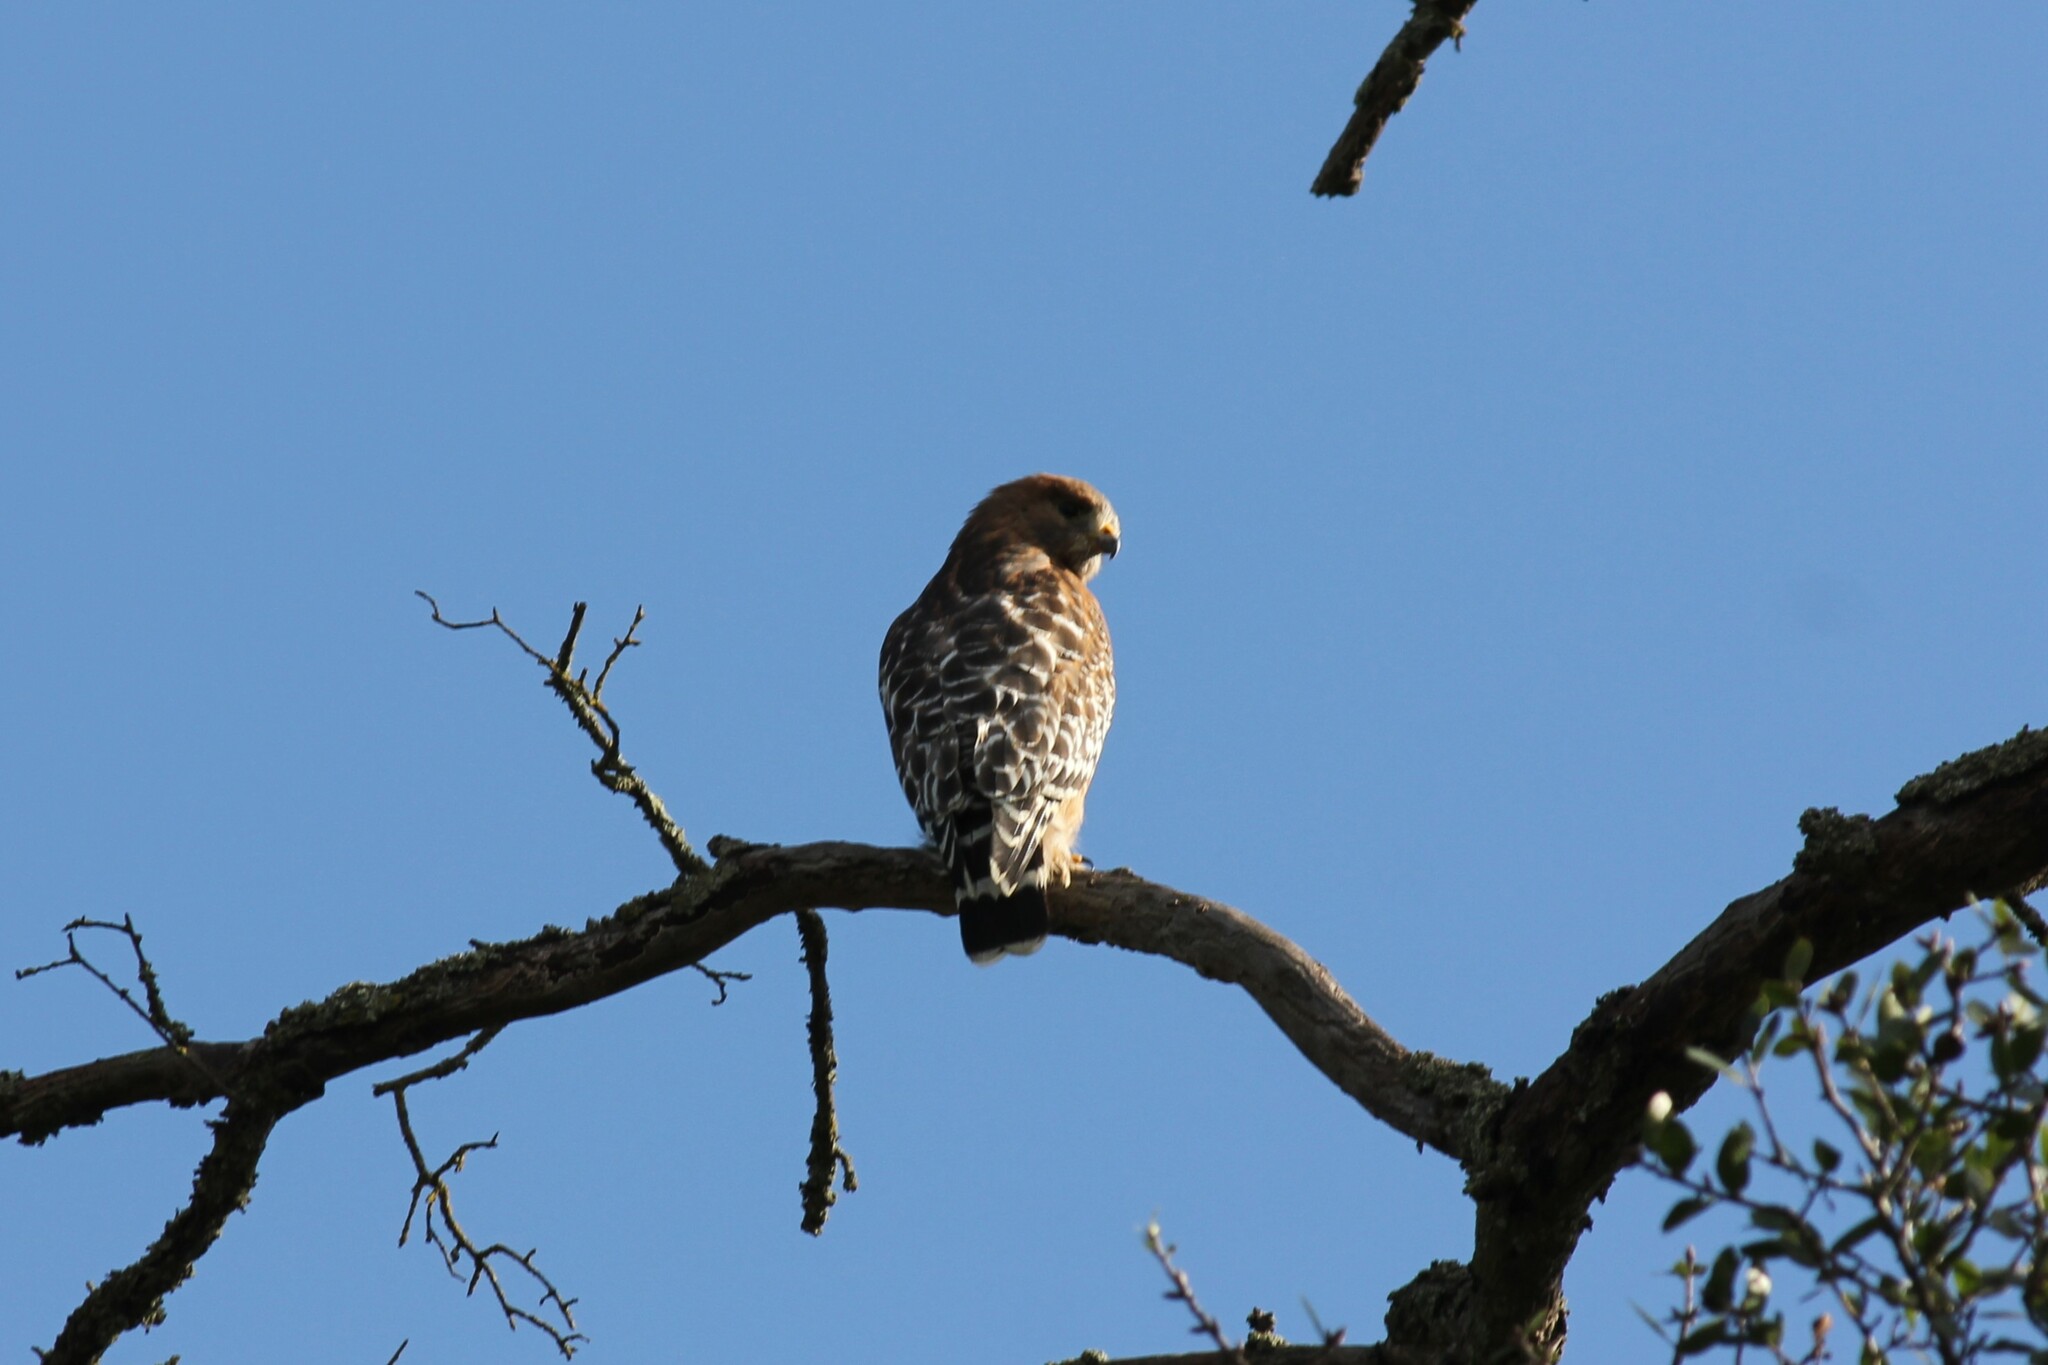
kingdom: Animalia
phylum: Chordata
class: Aves
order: Accipitriformes
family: Accipitridae
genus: Buteo
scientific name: Buteo lineatus
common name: Red-shouldered hawk
